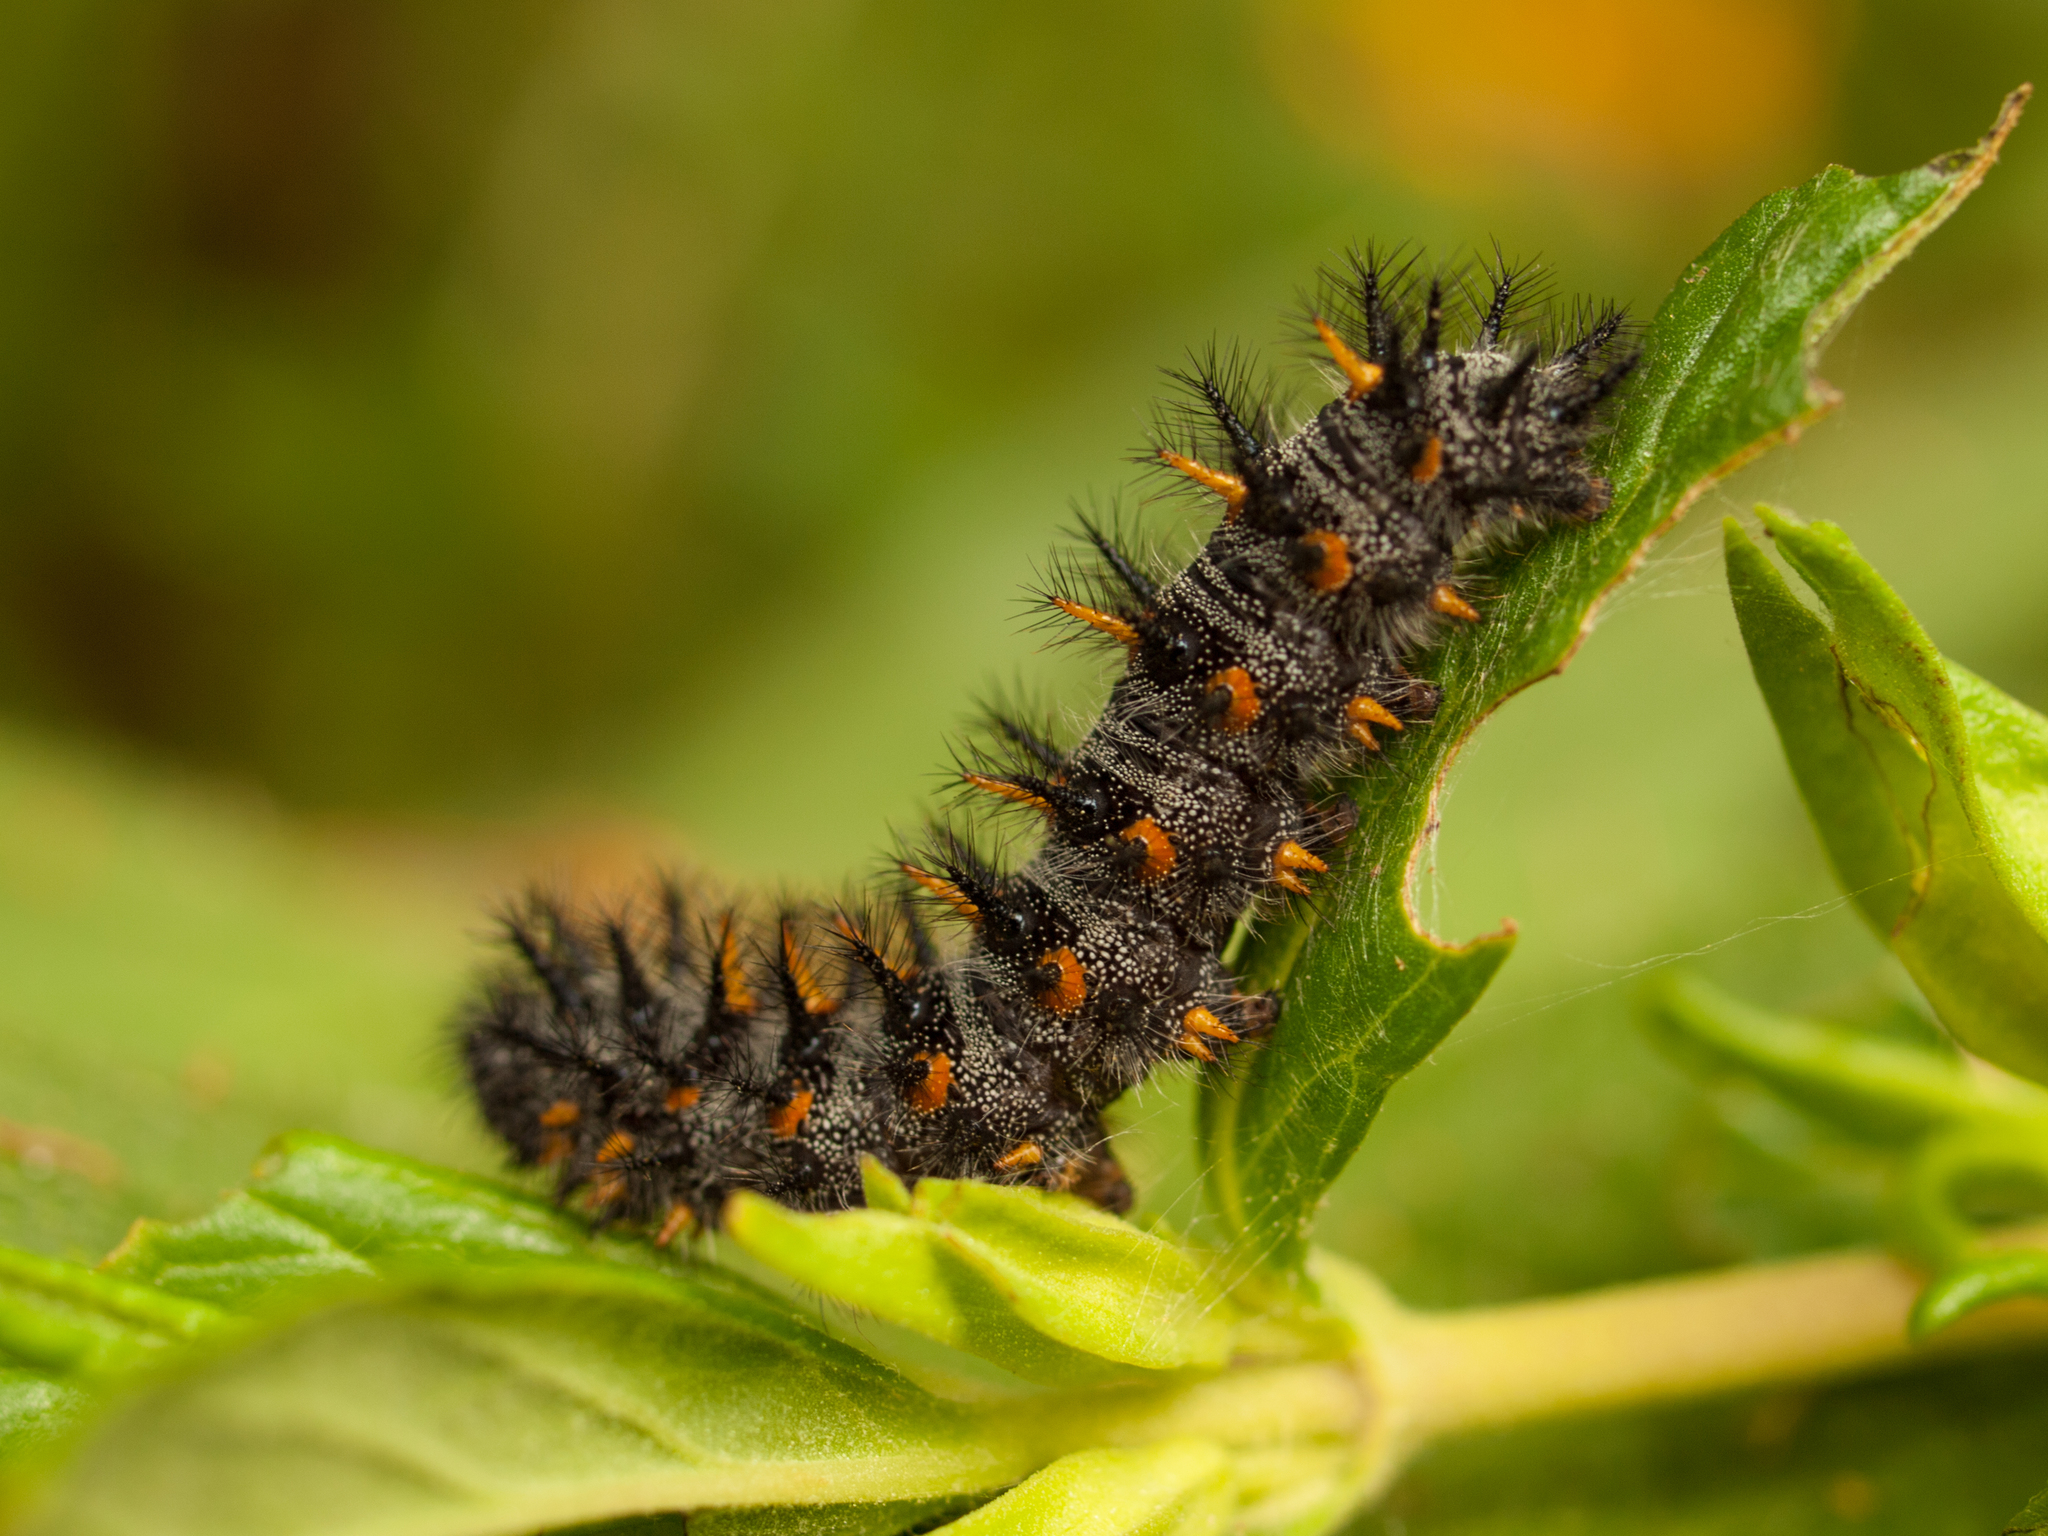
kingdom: Animalia
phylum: Arthropoda
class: Insecta
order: Lepidoptera
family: Nymphalidae
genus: Occidryas
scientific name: Occidryas chalcedona
